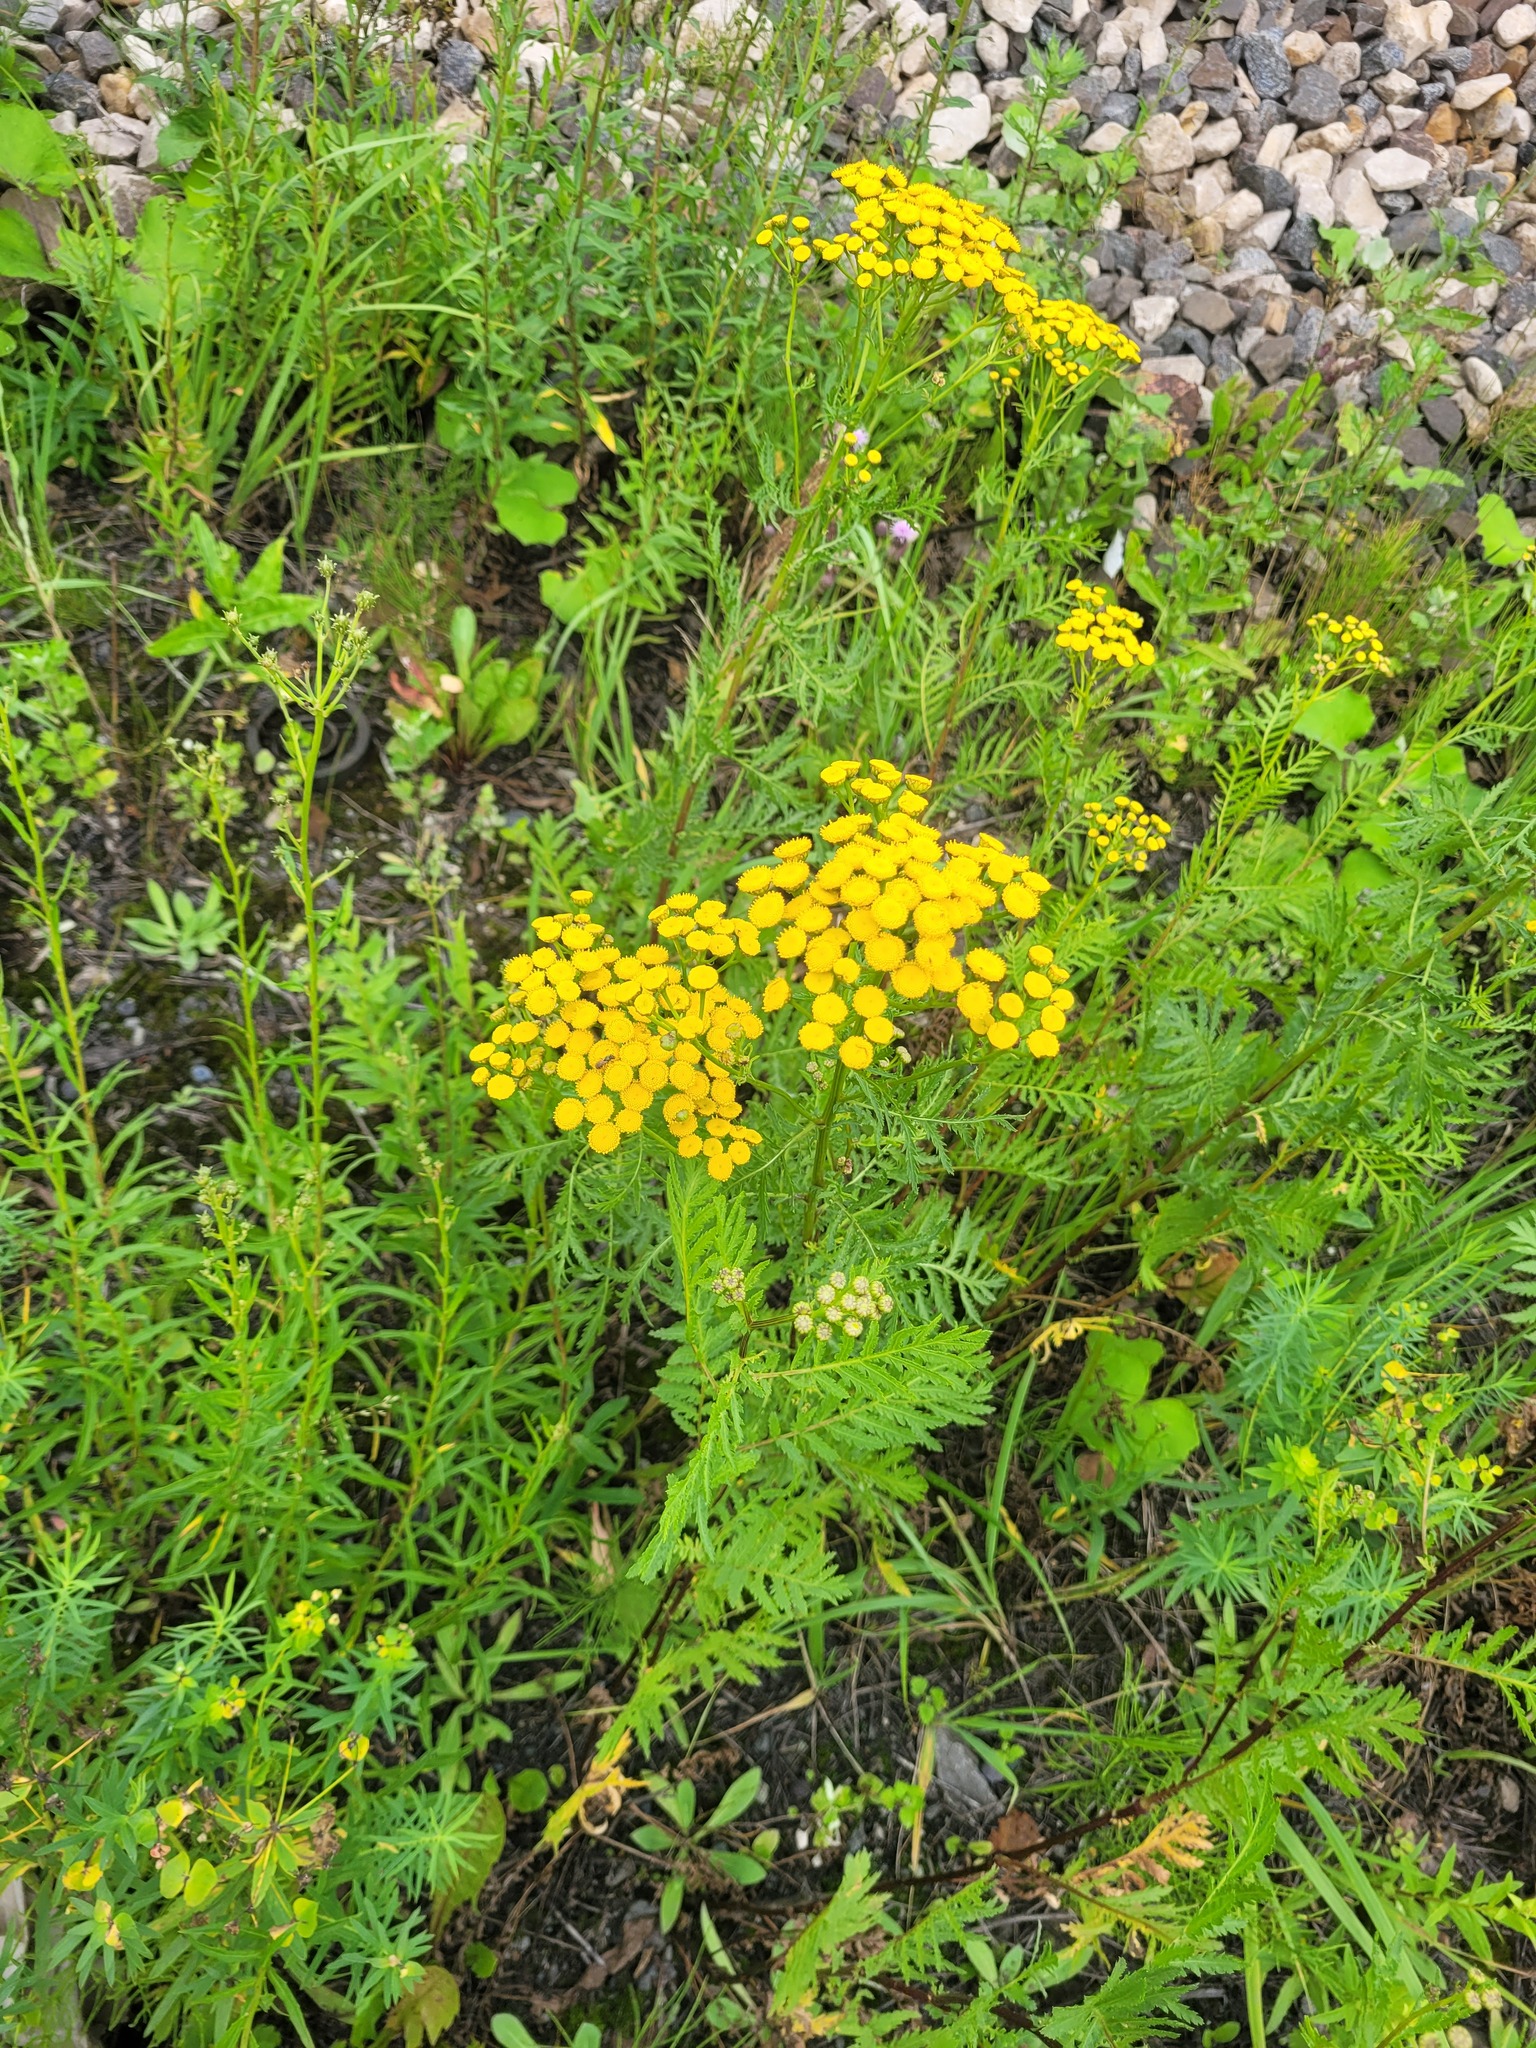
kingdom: Plantae
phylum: Tracheophyta
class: Magnoliopsida
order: Asterales
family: Asteraceae
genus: Tanacetum
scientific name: Tanacetum vulgare
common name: Common tansy
